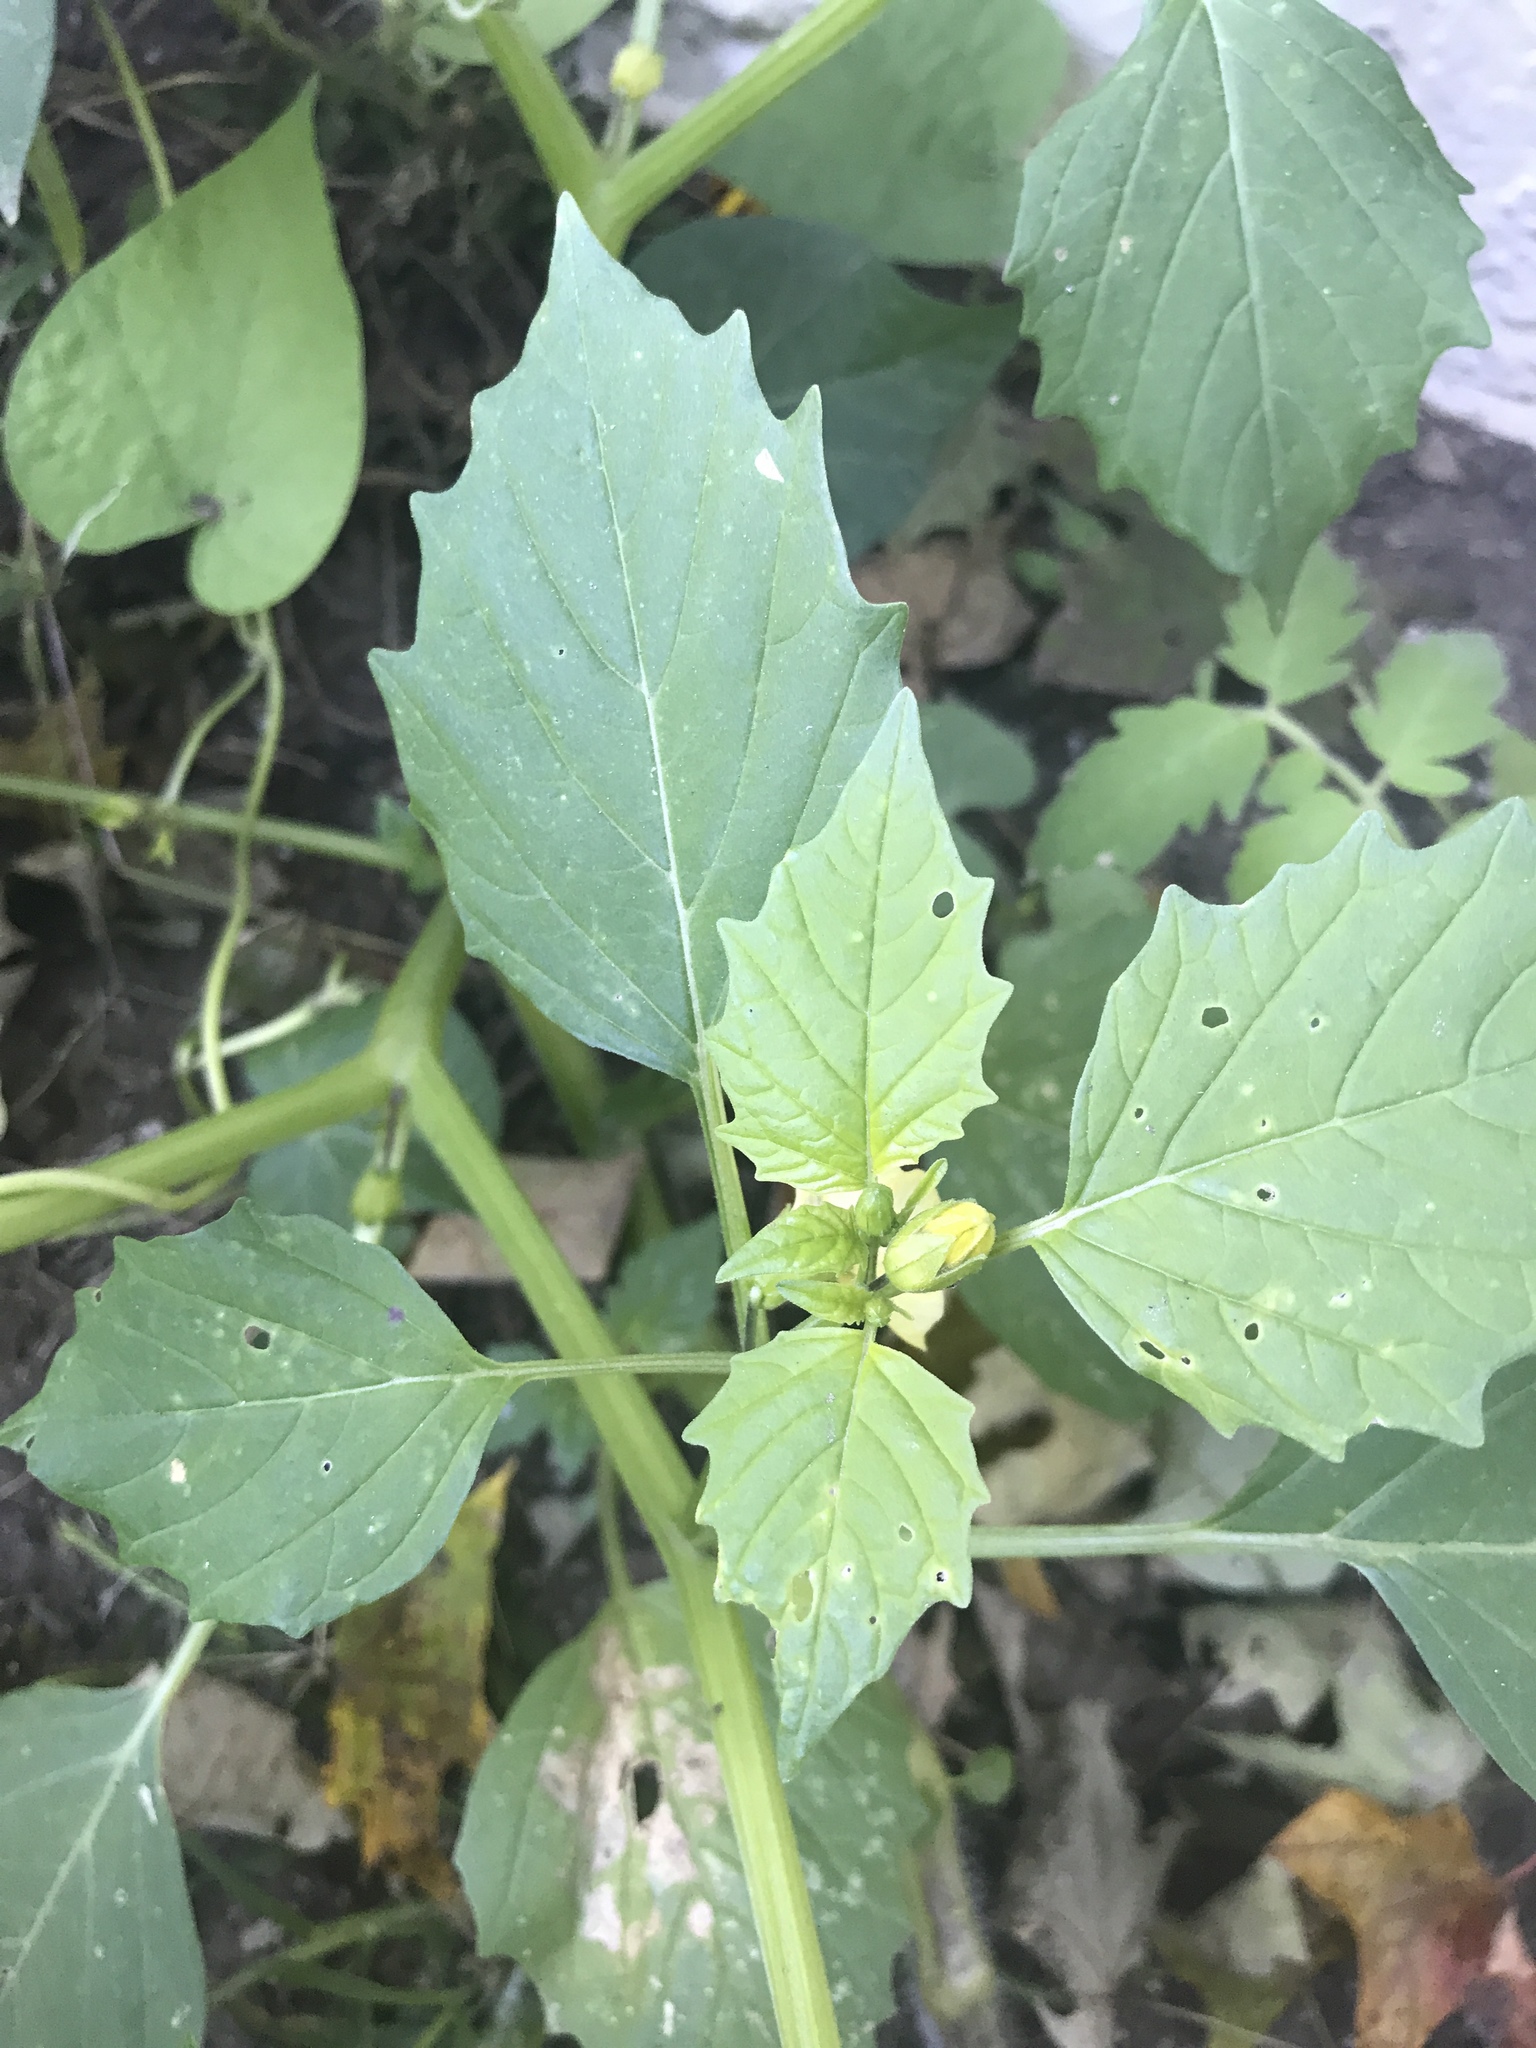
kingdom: Plantae
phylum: Tracheophyta
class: Magnoliopsida
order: Solanales
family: Solanaceae
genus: Physalis
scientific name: Physalis philadelphica
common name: Husk-tomato
